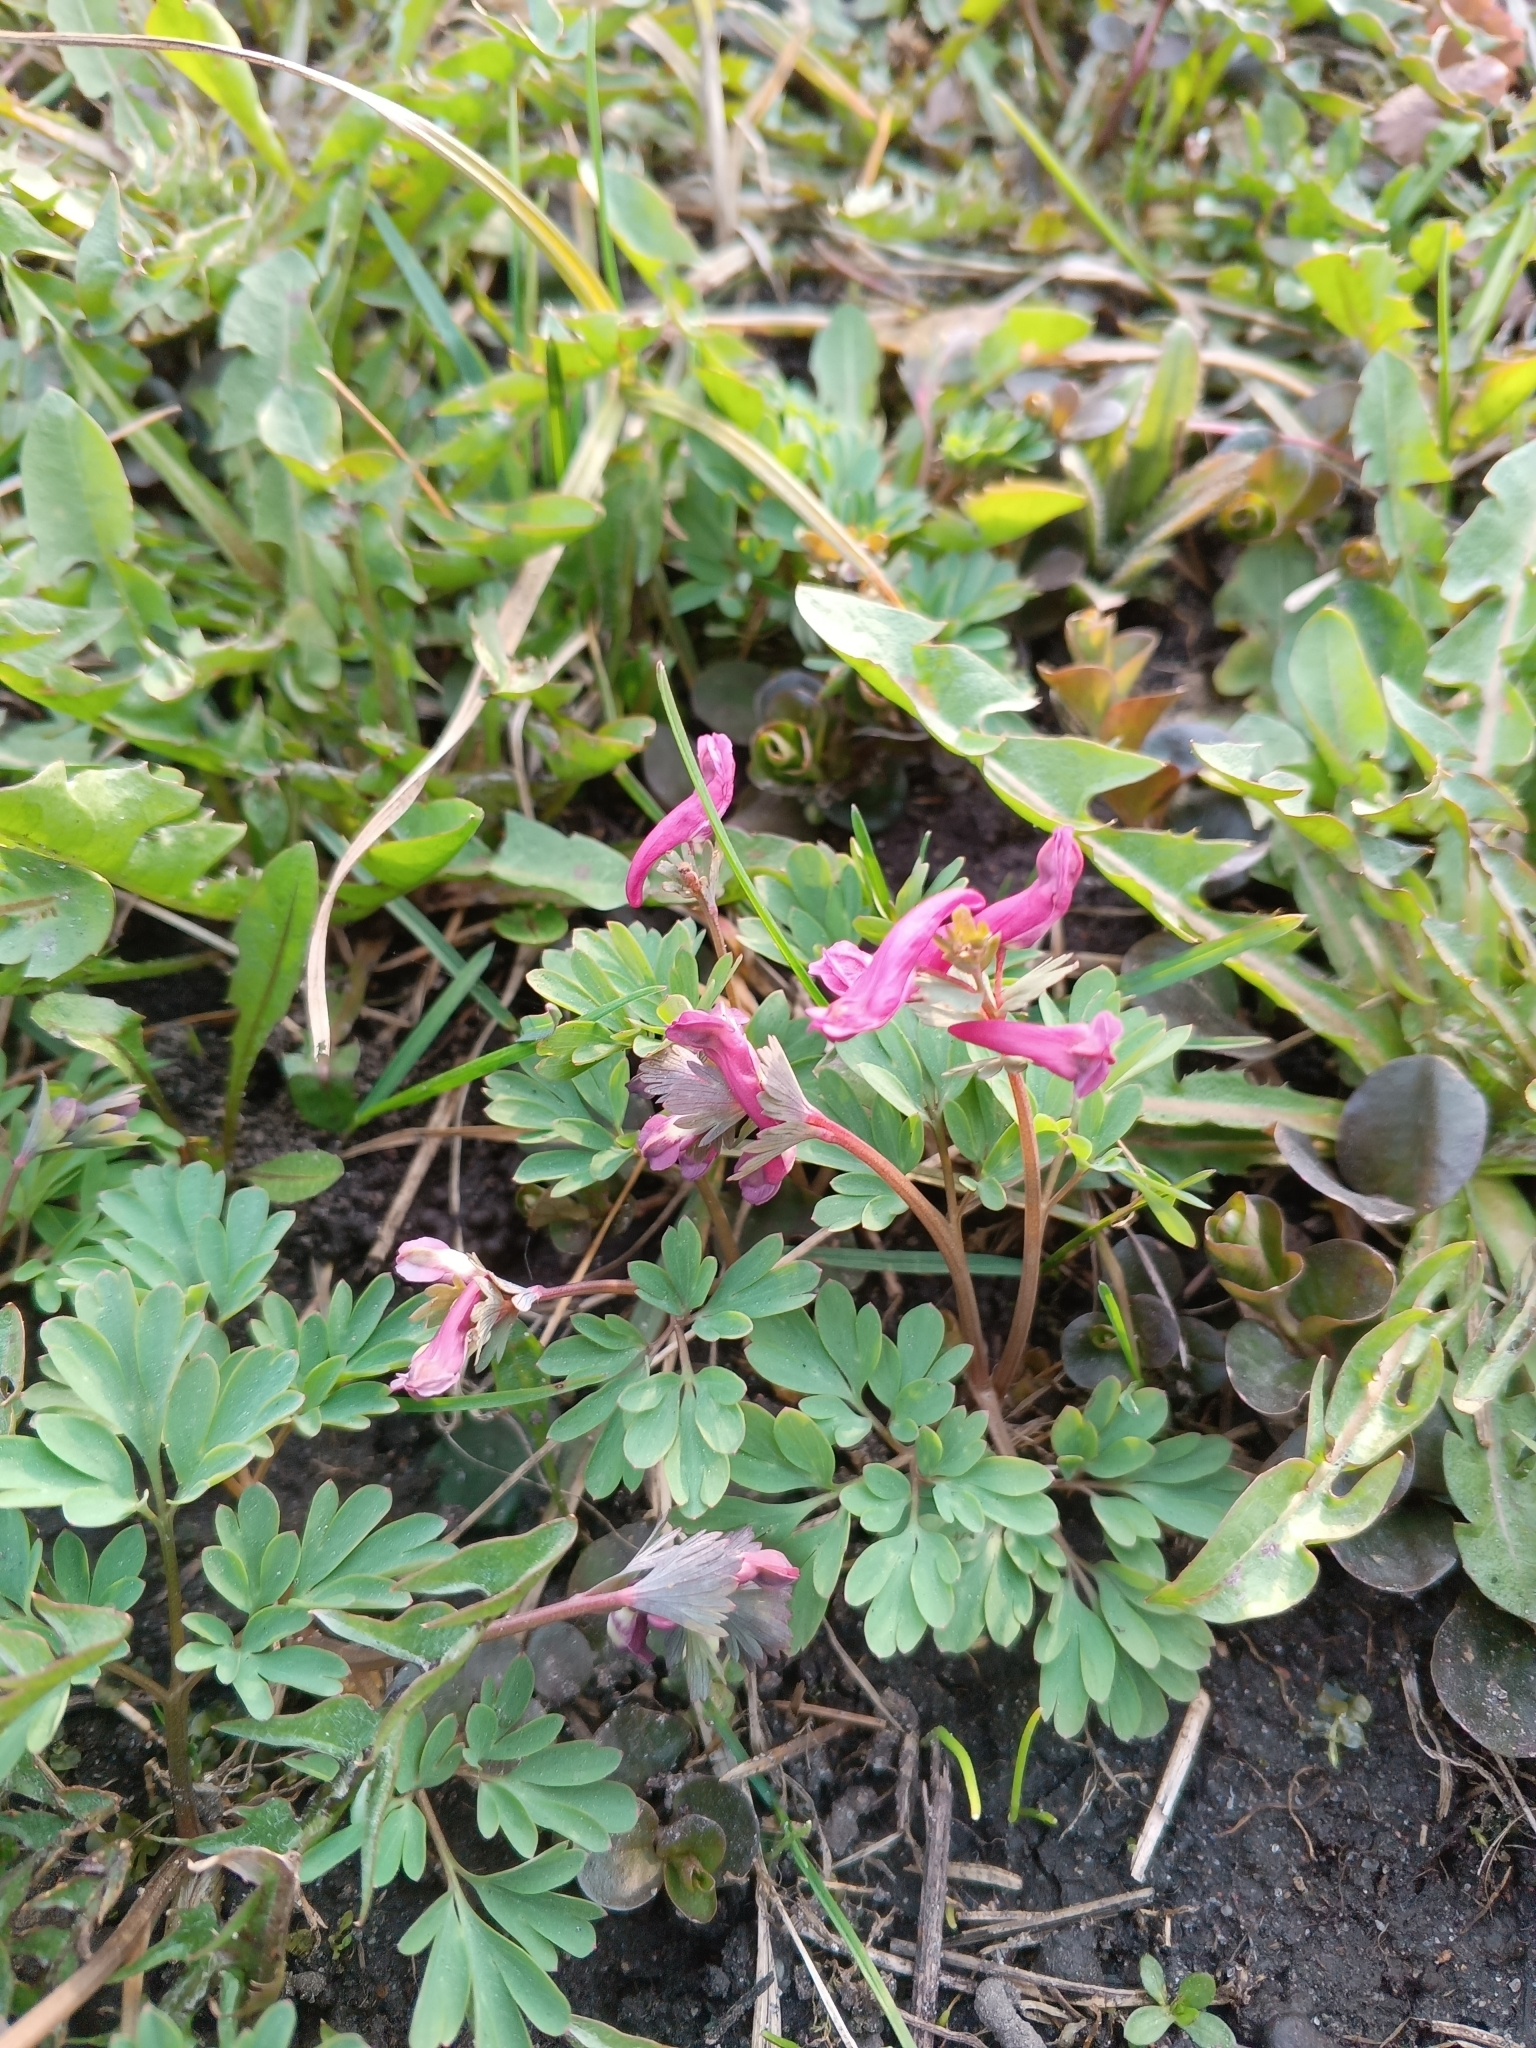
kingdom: Plantae
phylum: Tracheophyta
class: Magnoliopsida
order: Ranunculales
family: Papaveraceae
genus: Corydalis
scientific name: Corydalis solida
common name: Bird-in-a-bush
